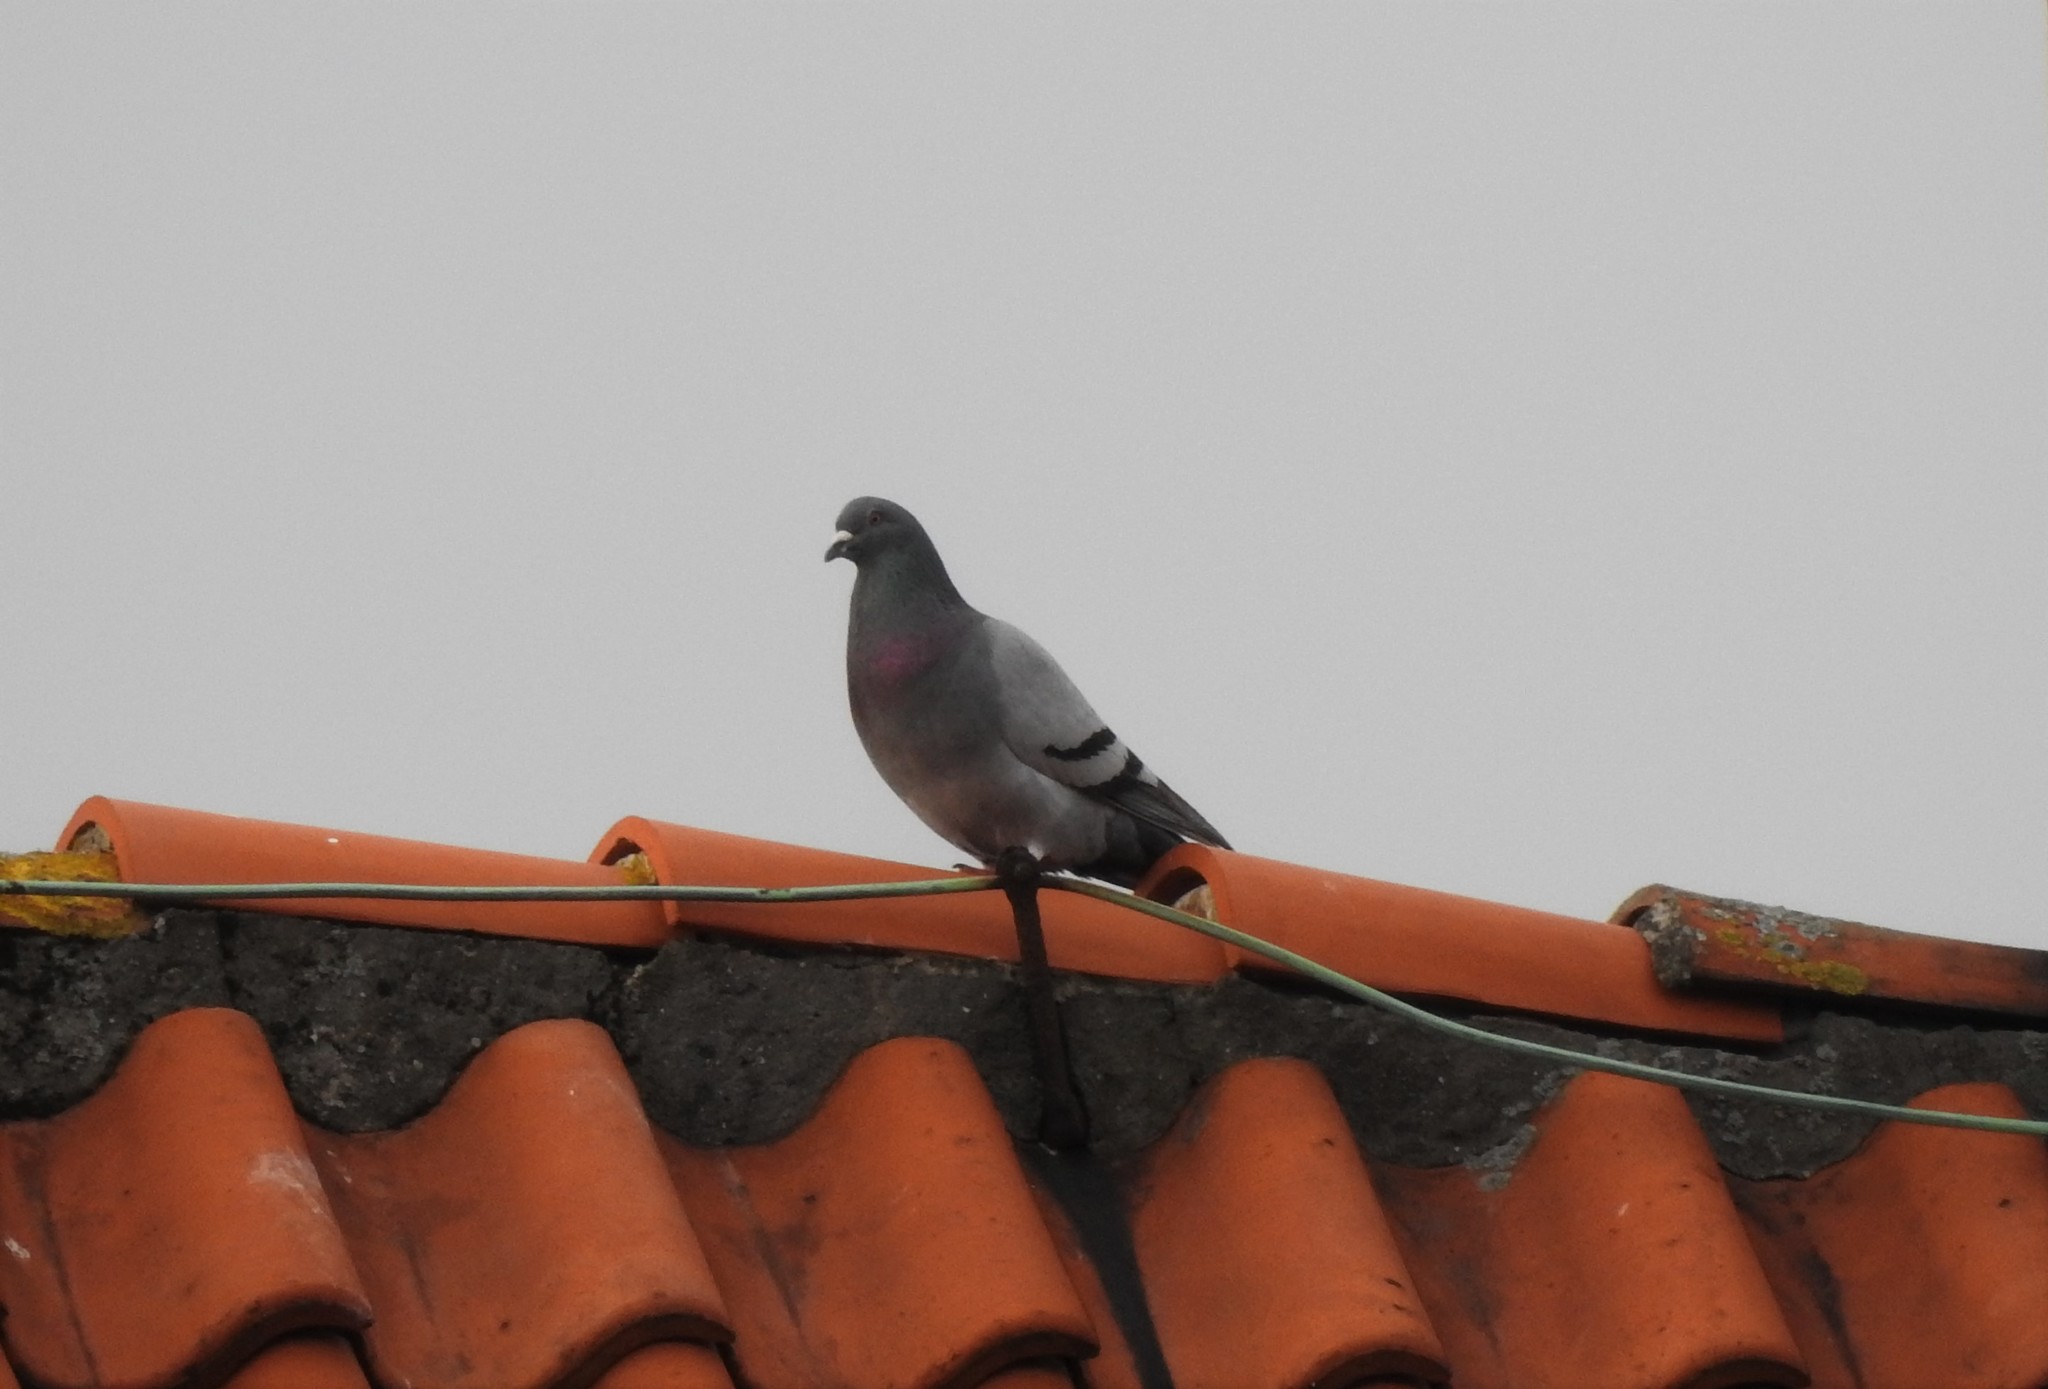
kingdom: Animalia
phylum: Chordata
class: Aves
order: Columbiformes
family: Columbidae
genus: Columba
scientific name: Columba livia
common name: Rock pigeon
